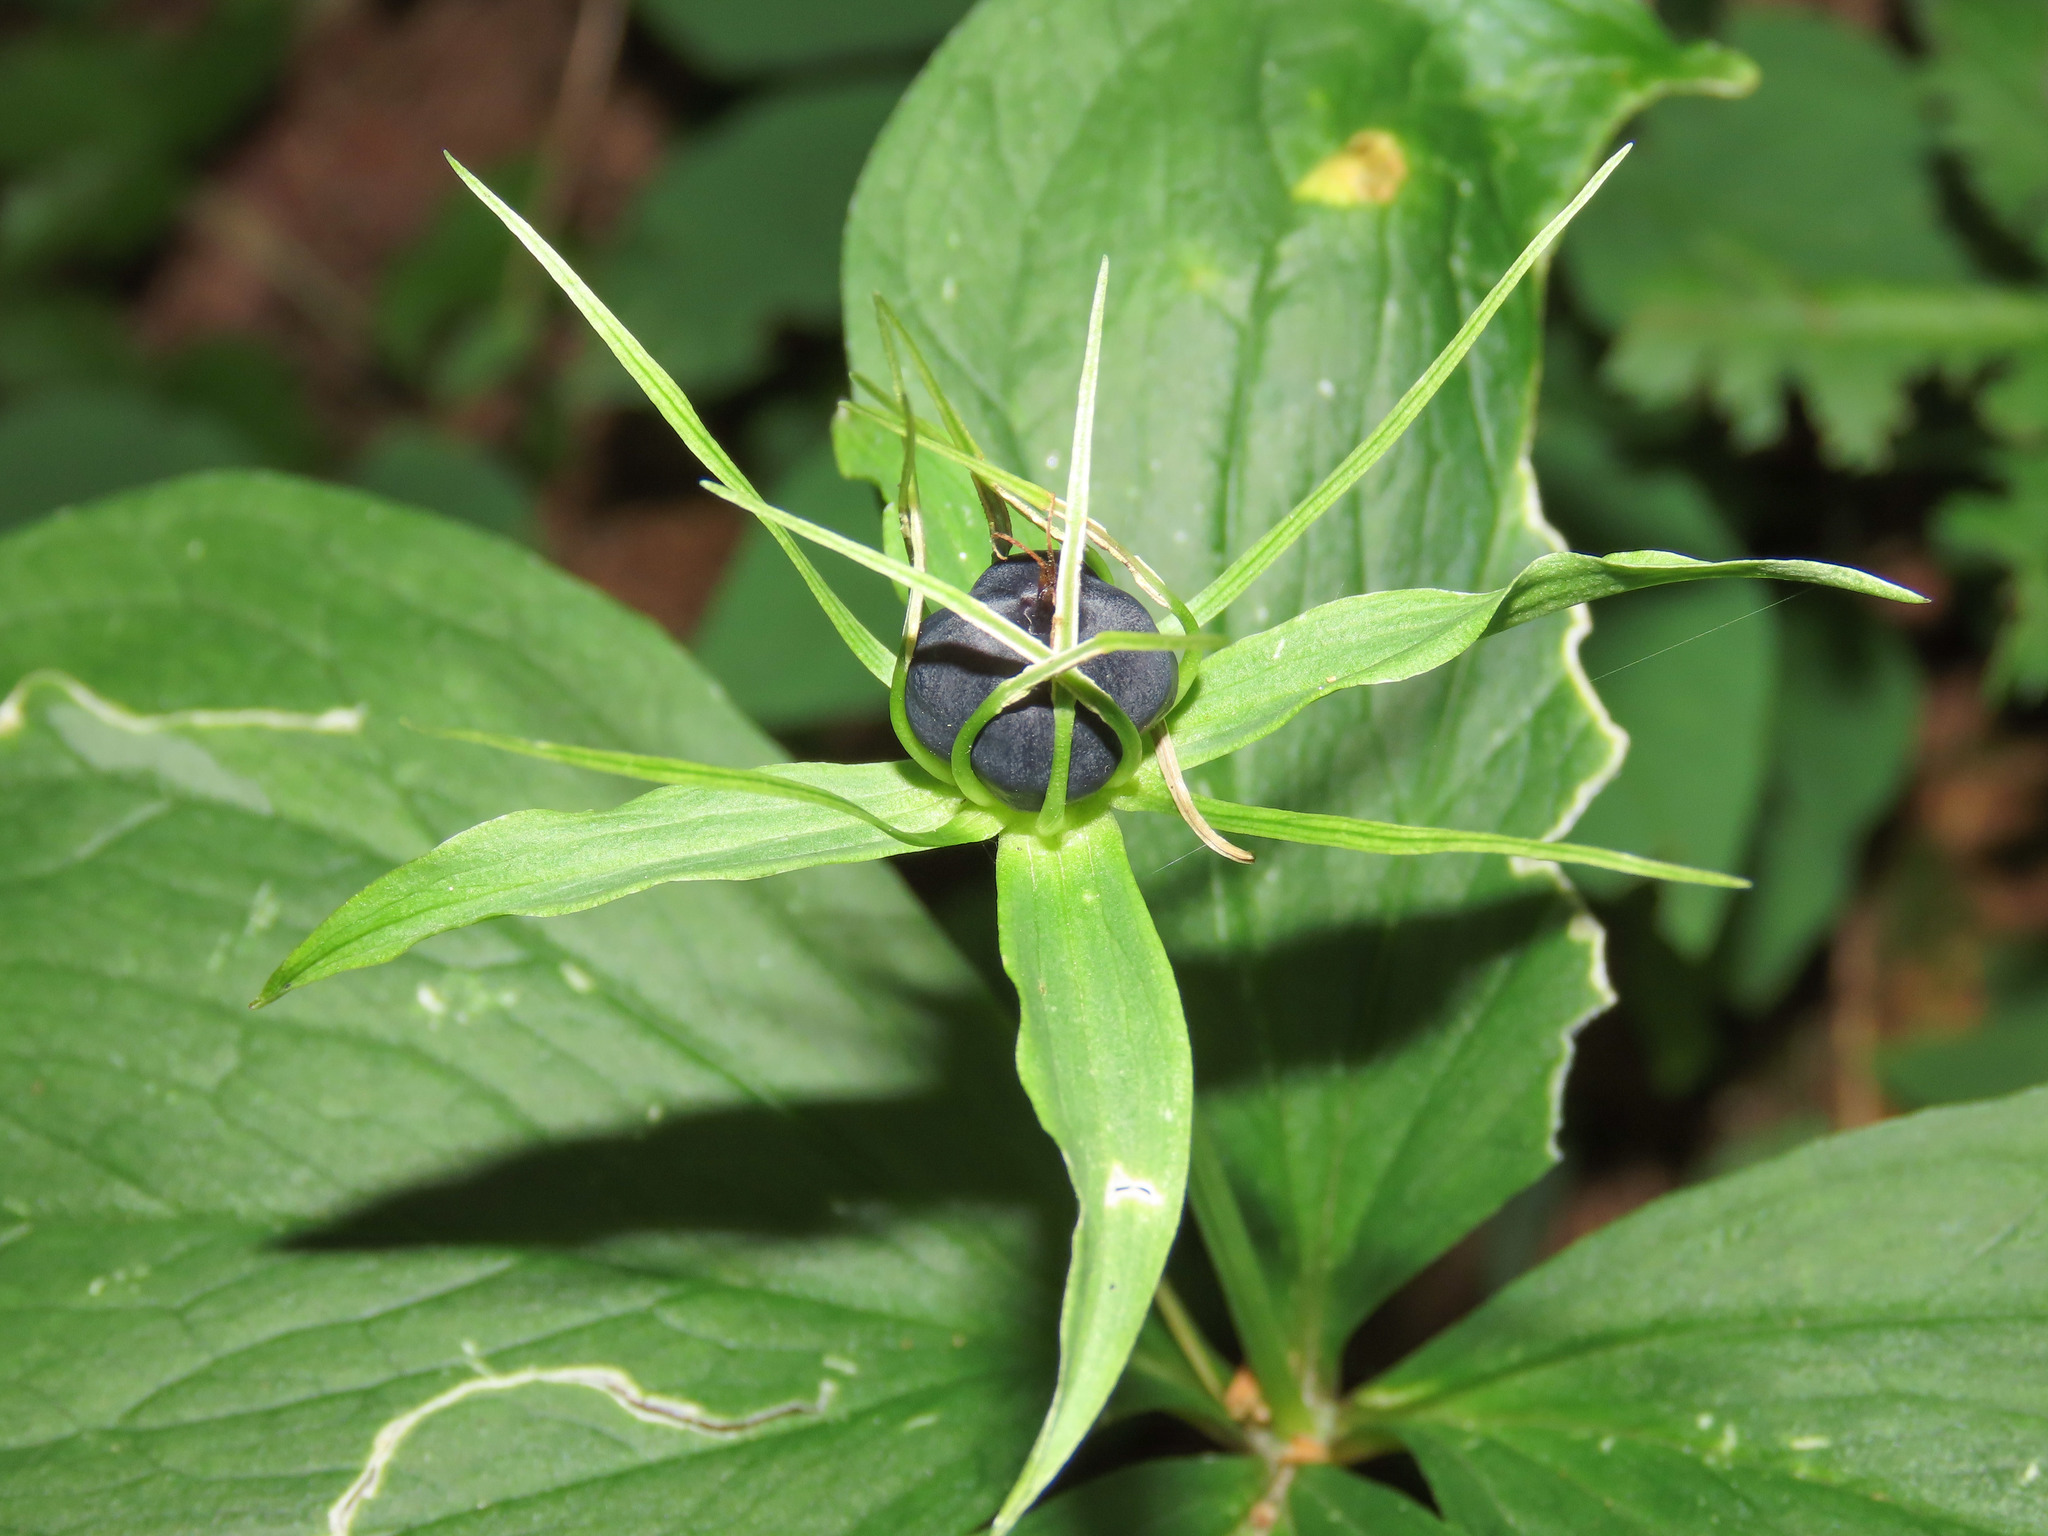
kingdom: Plantae
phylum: Tracheophyta
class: Liliopsida
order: Liliales
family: Melanthiaceae
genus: Paris
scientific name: Paris quadrifolia
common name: Herb-paris
